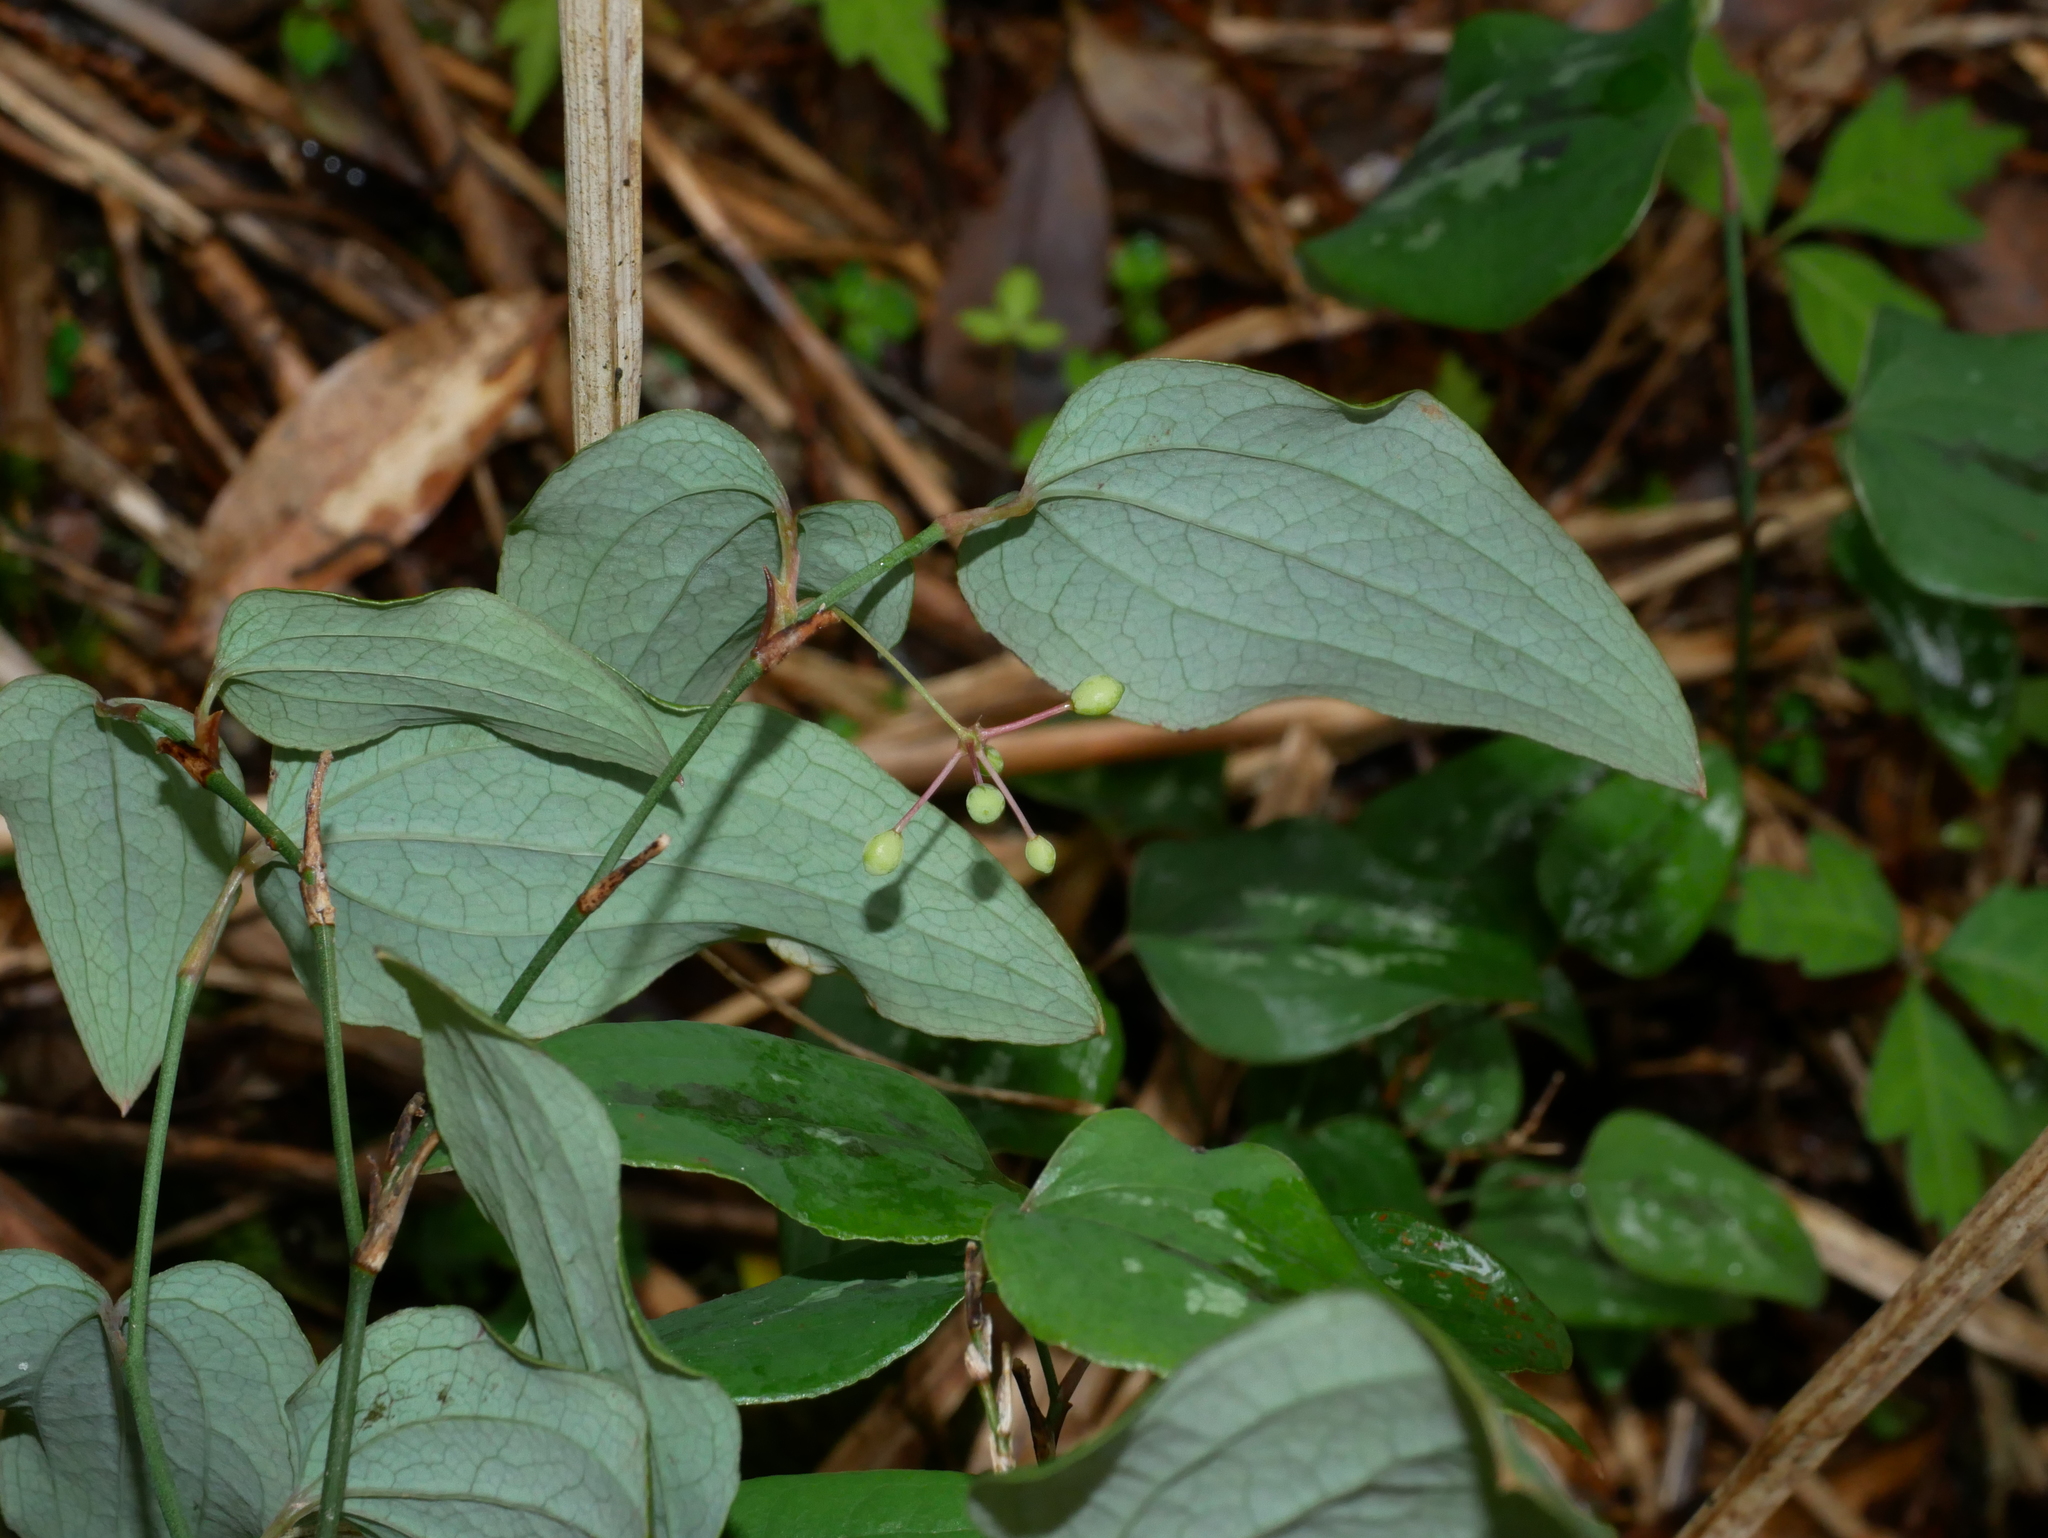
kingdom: Plantae
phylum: Tracheophyta
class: Liliopsida
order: Liliales
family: Smilacaceae
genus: Smilax
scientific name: Smilax menispermoidea
